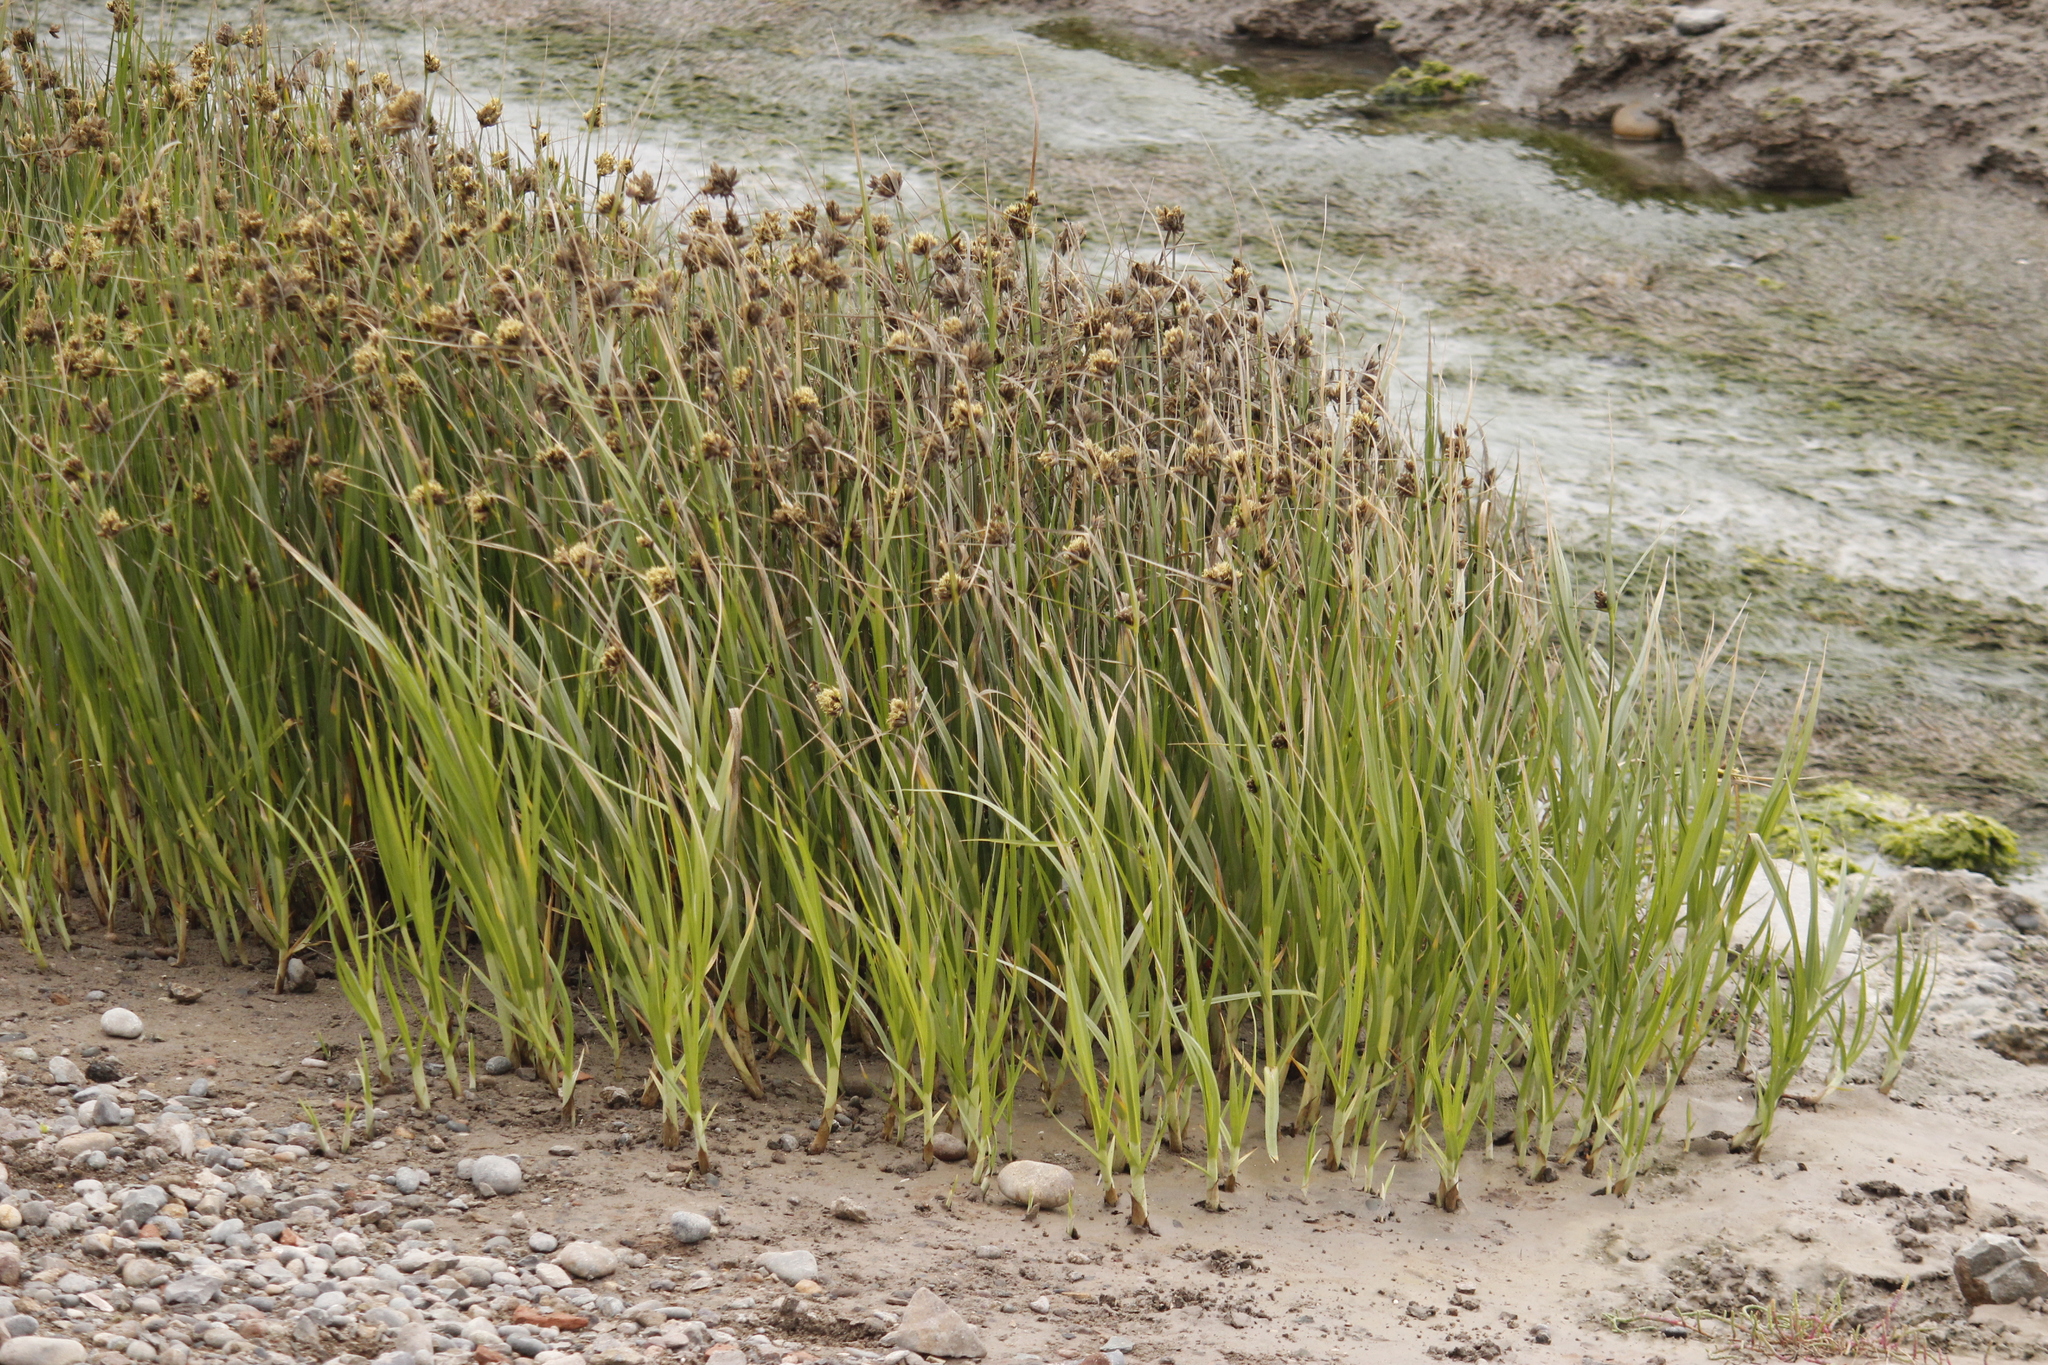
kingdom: Plantae
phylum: Tracheophyta
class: Liliopsida
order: Poales
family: Cyperaceae
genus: Schoenoplectus
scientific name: Schoenoplectus americanus
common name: American three-square bulrush
